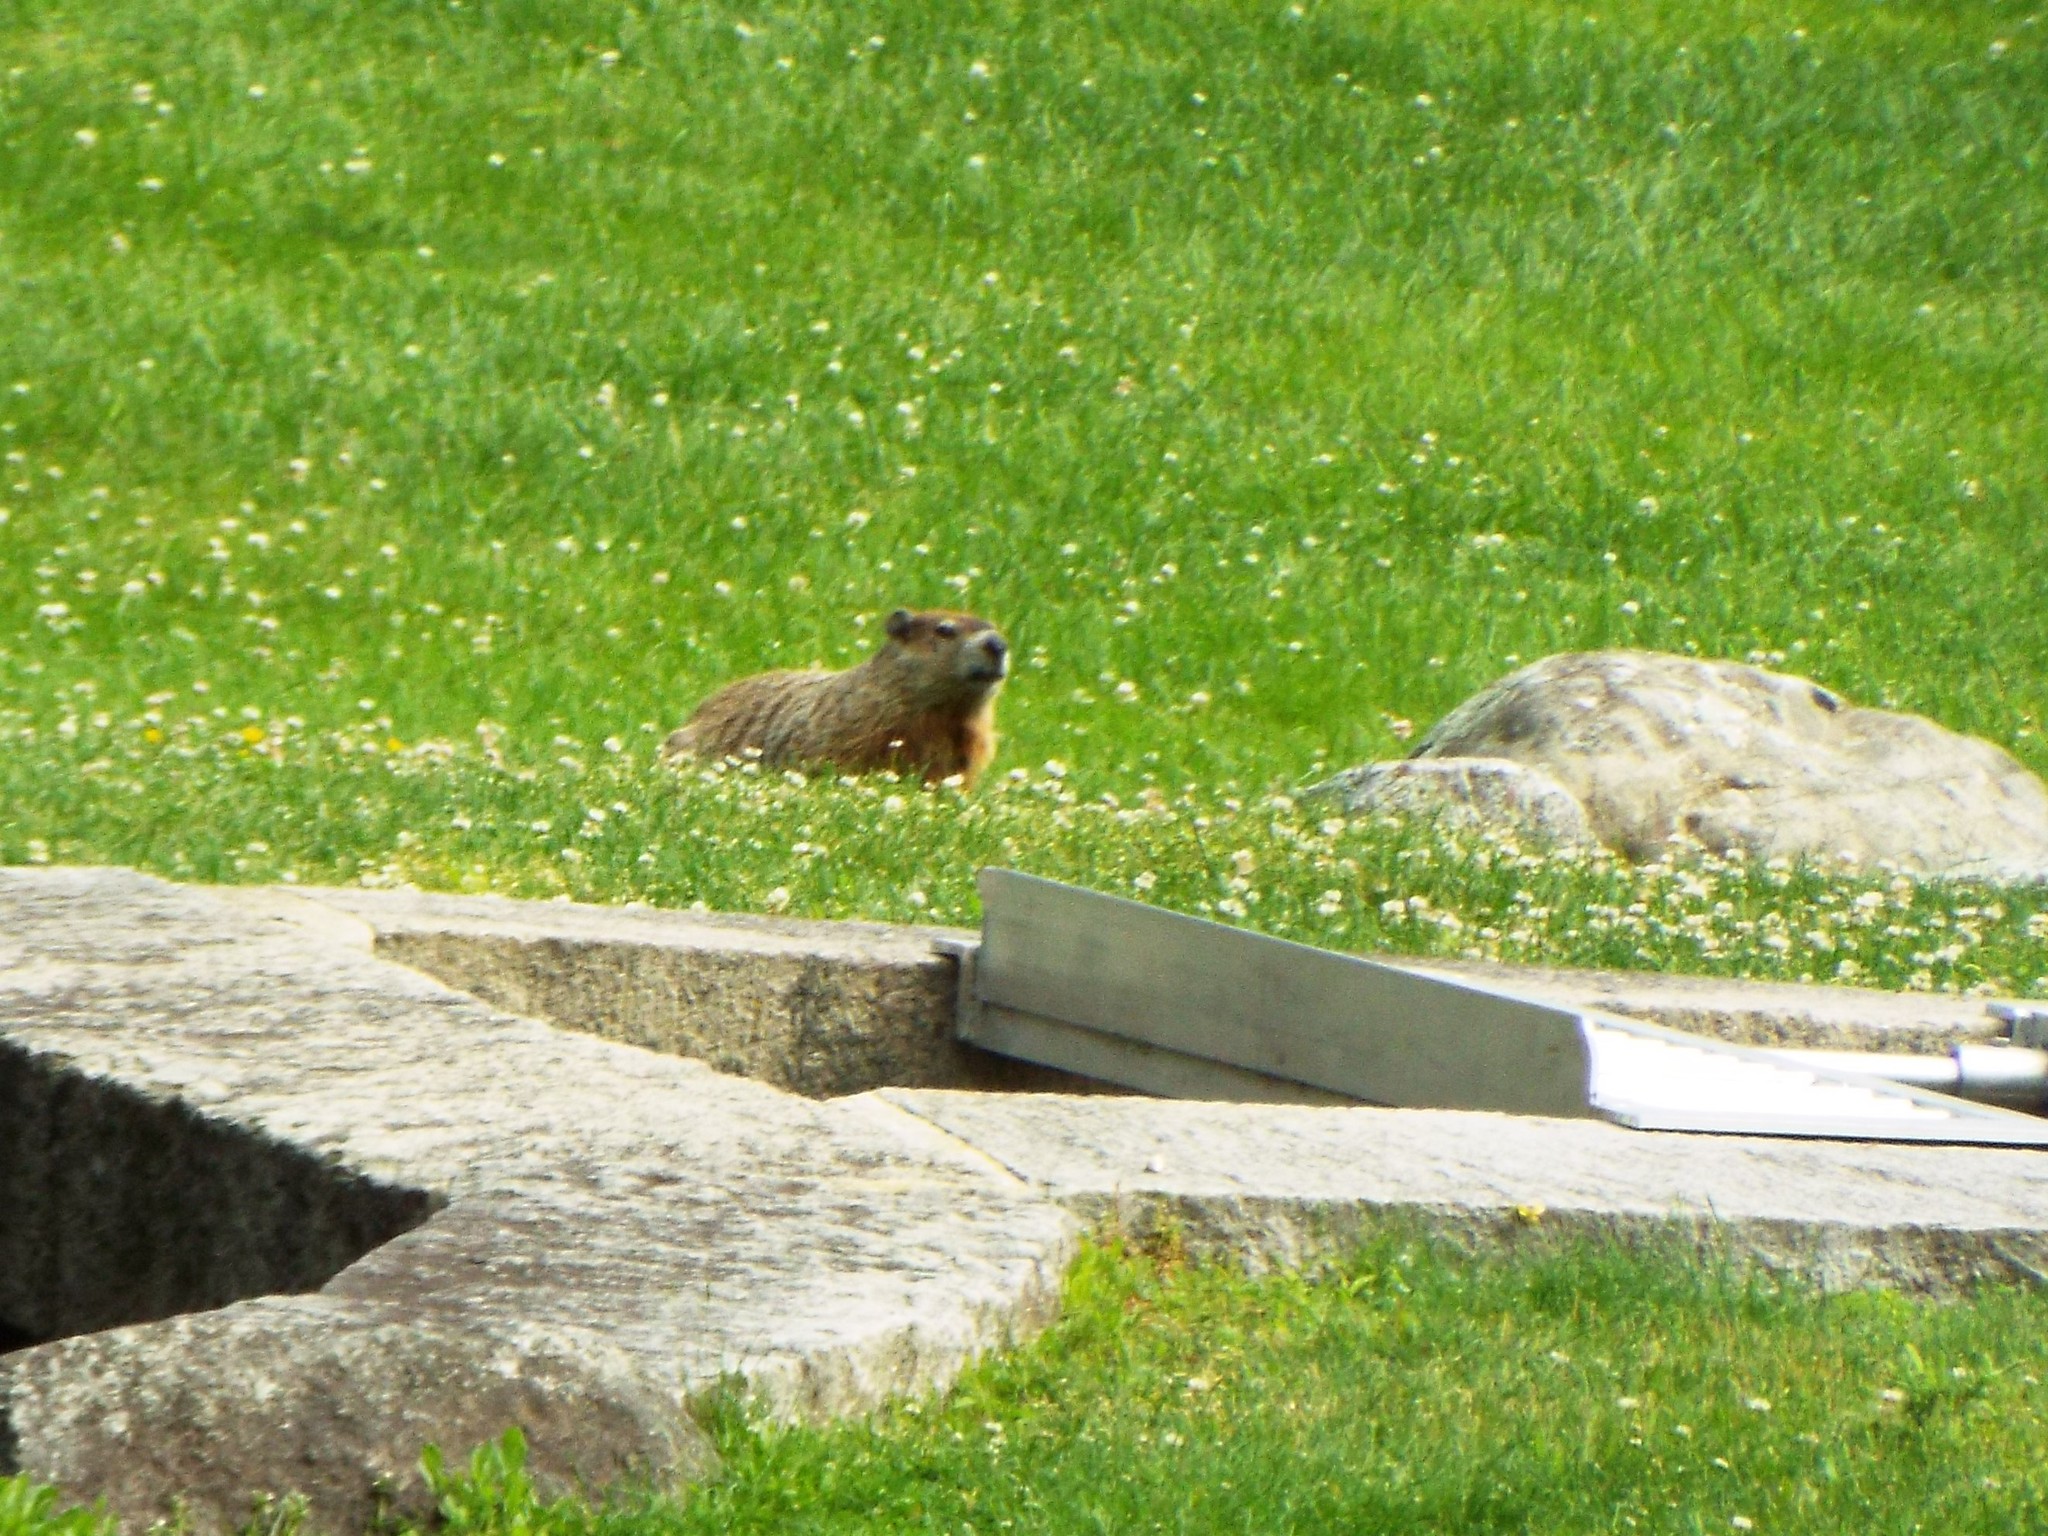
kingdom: Animalia
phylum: Chordata
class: Mammalia
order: Rodentia
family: Sciuridae
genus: Marmota
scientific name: Marmota monax
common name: Groundhog
